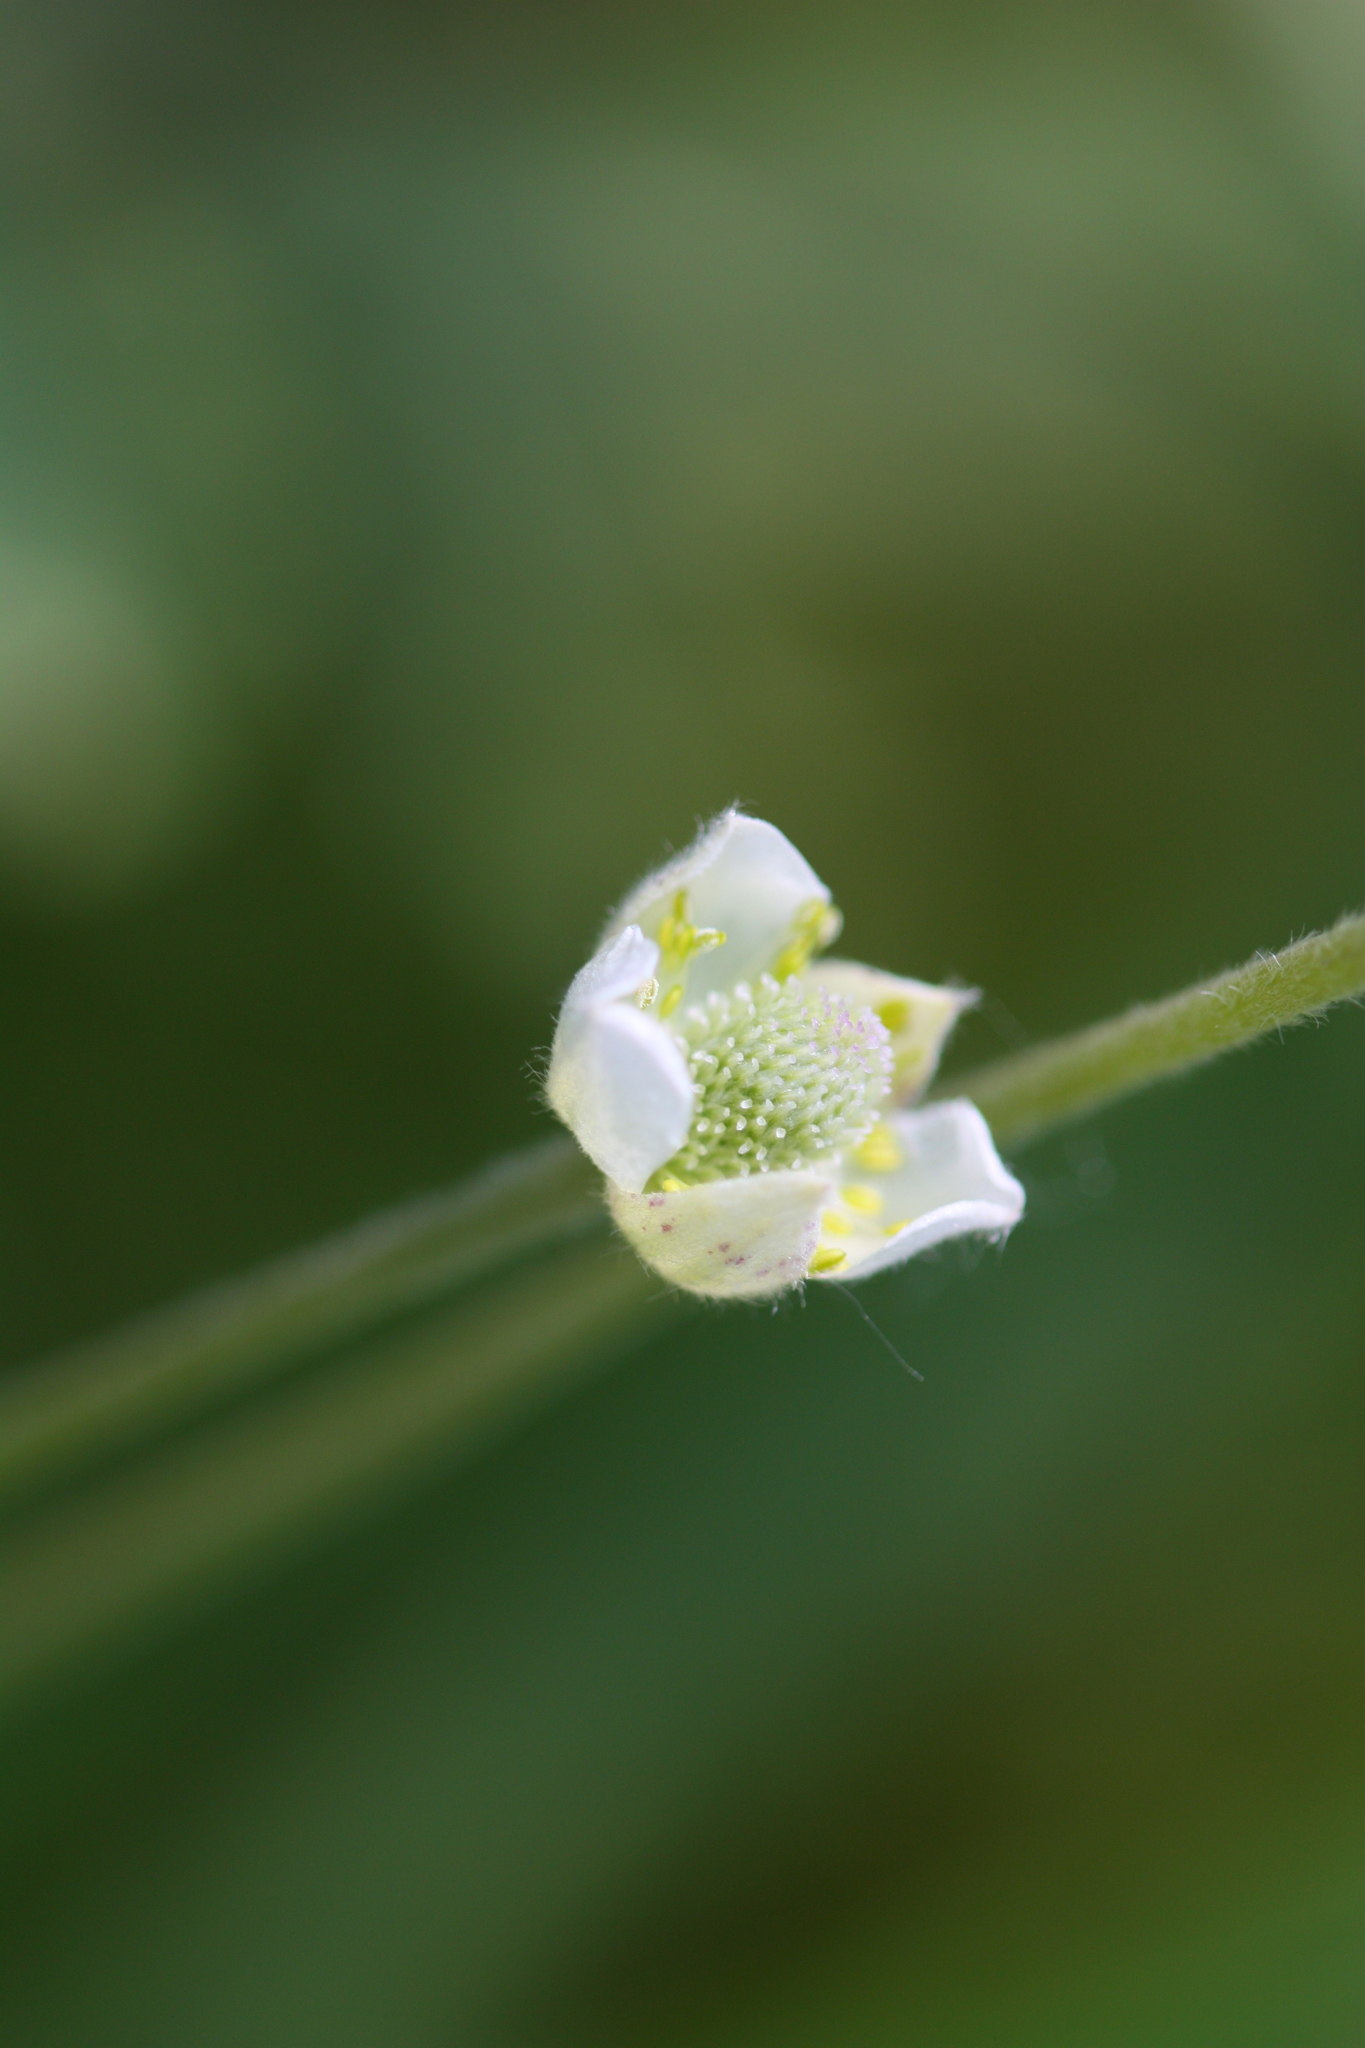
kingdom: Plantae
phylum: Tracheophyta
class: Magnoliopsida
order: Ranunculales
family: Ranunculaceae
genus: Anemone
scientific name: Anemone cylindrica
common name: Candle anemone
